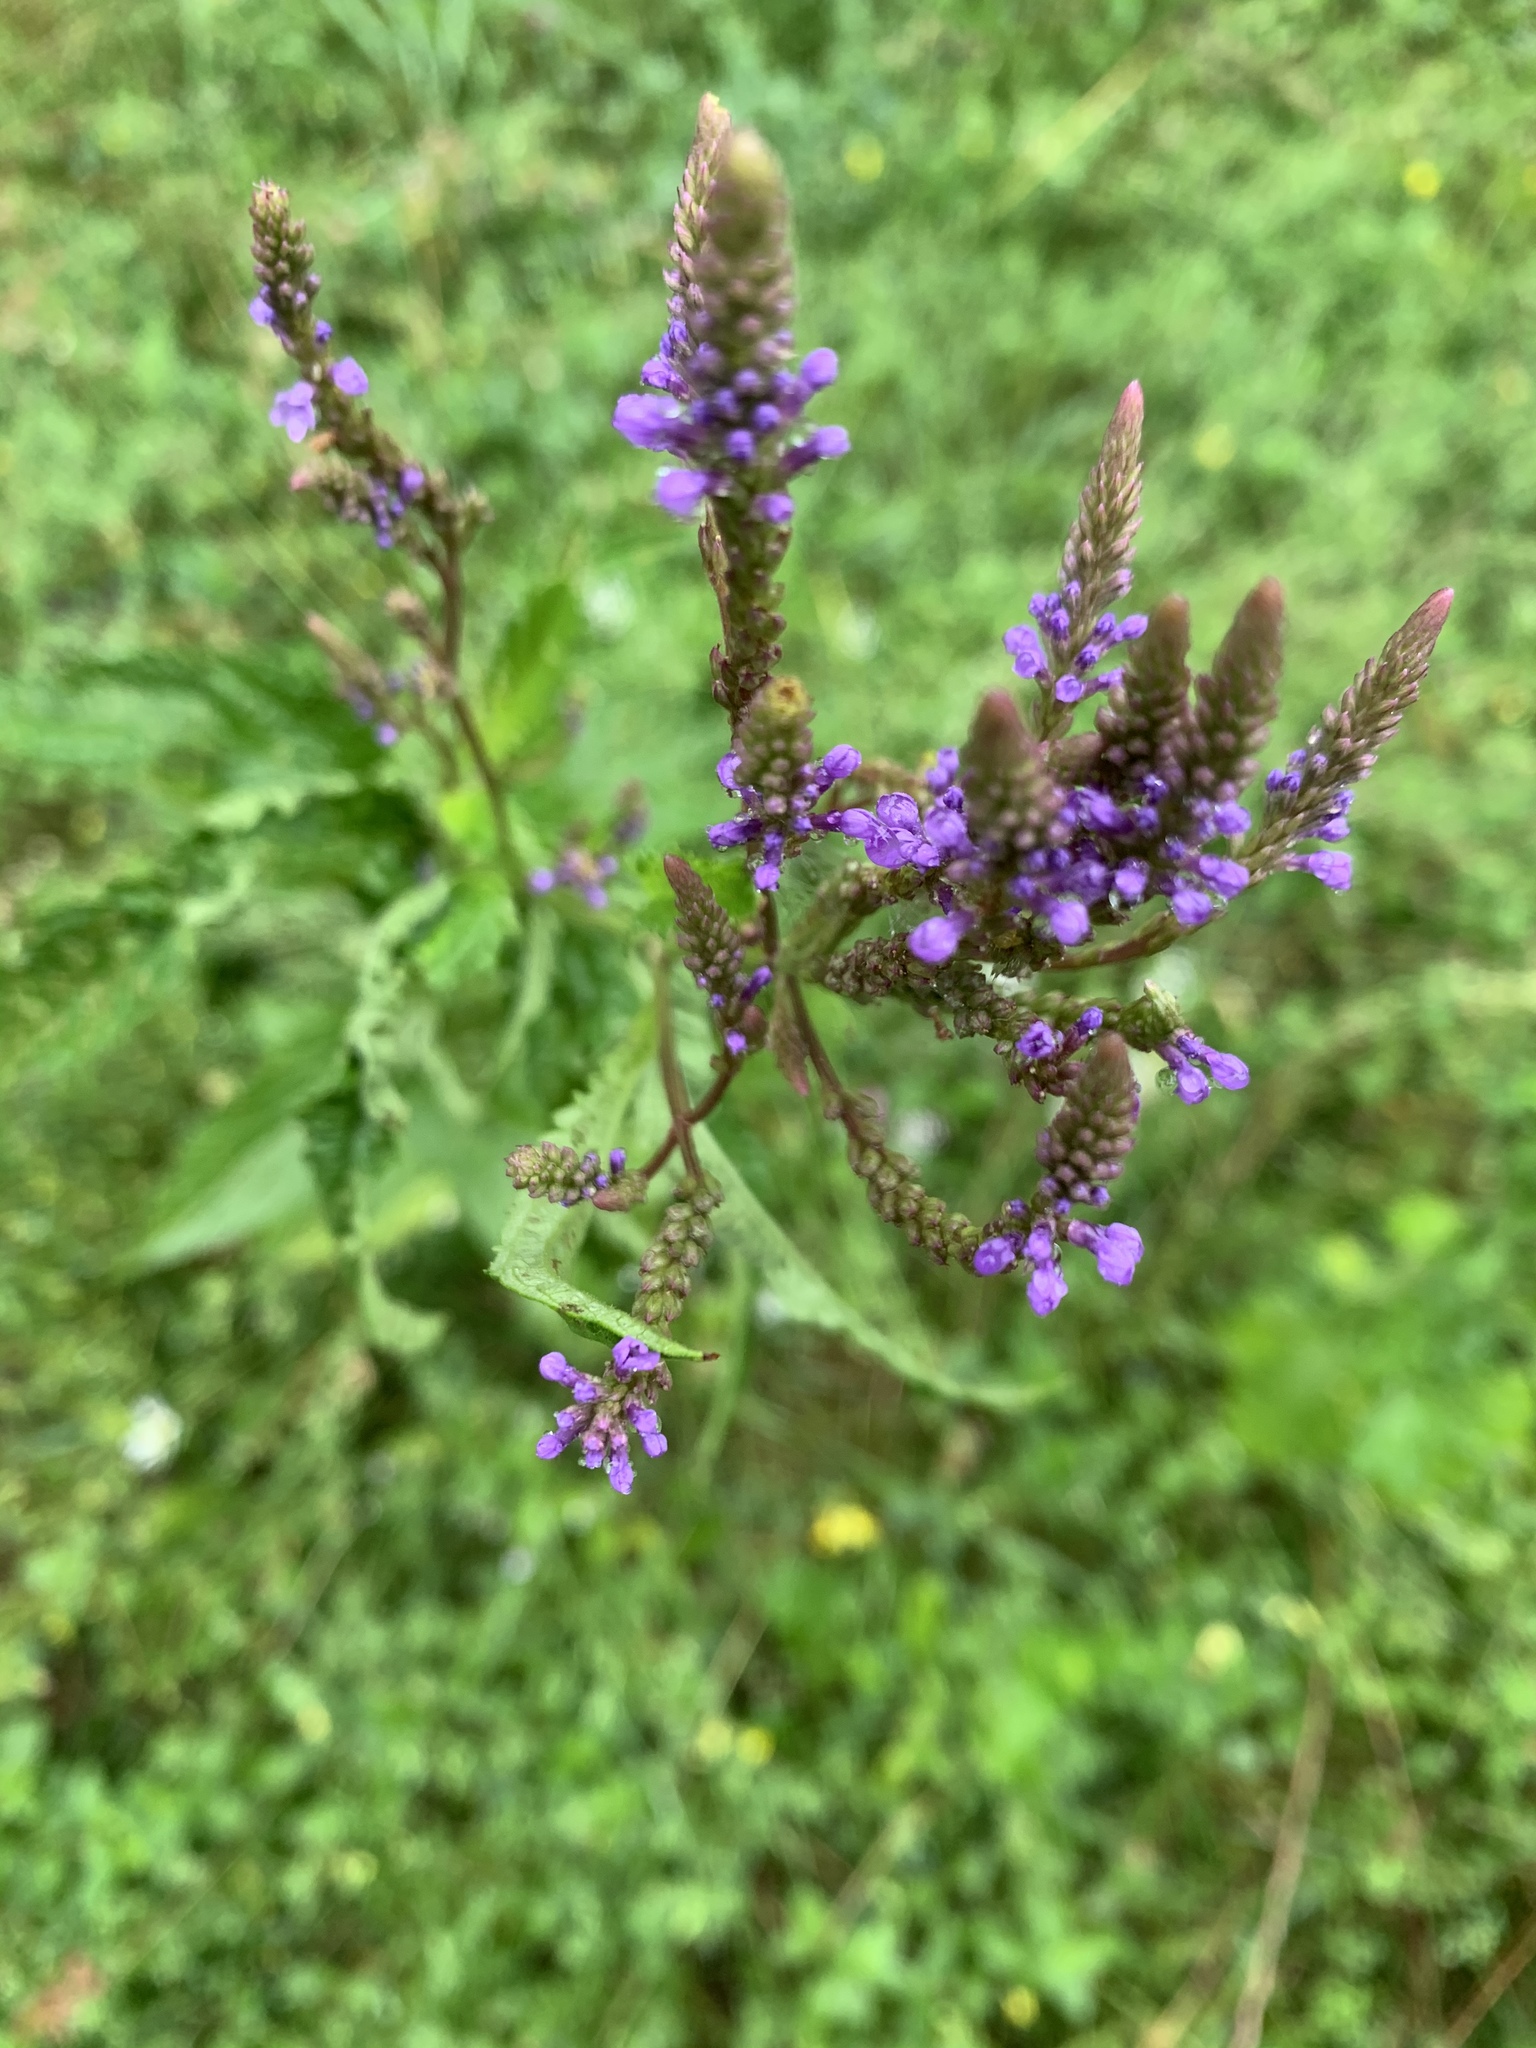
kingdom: Plantae
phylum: Tracheophyta
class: Magnoliopsida
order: Lamiales
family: Verbenaceae
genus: Verbena
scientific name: Verbena hastata
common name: American blue vervain
